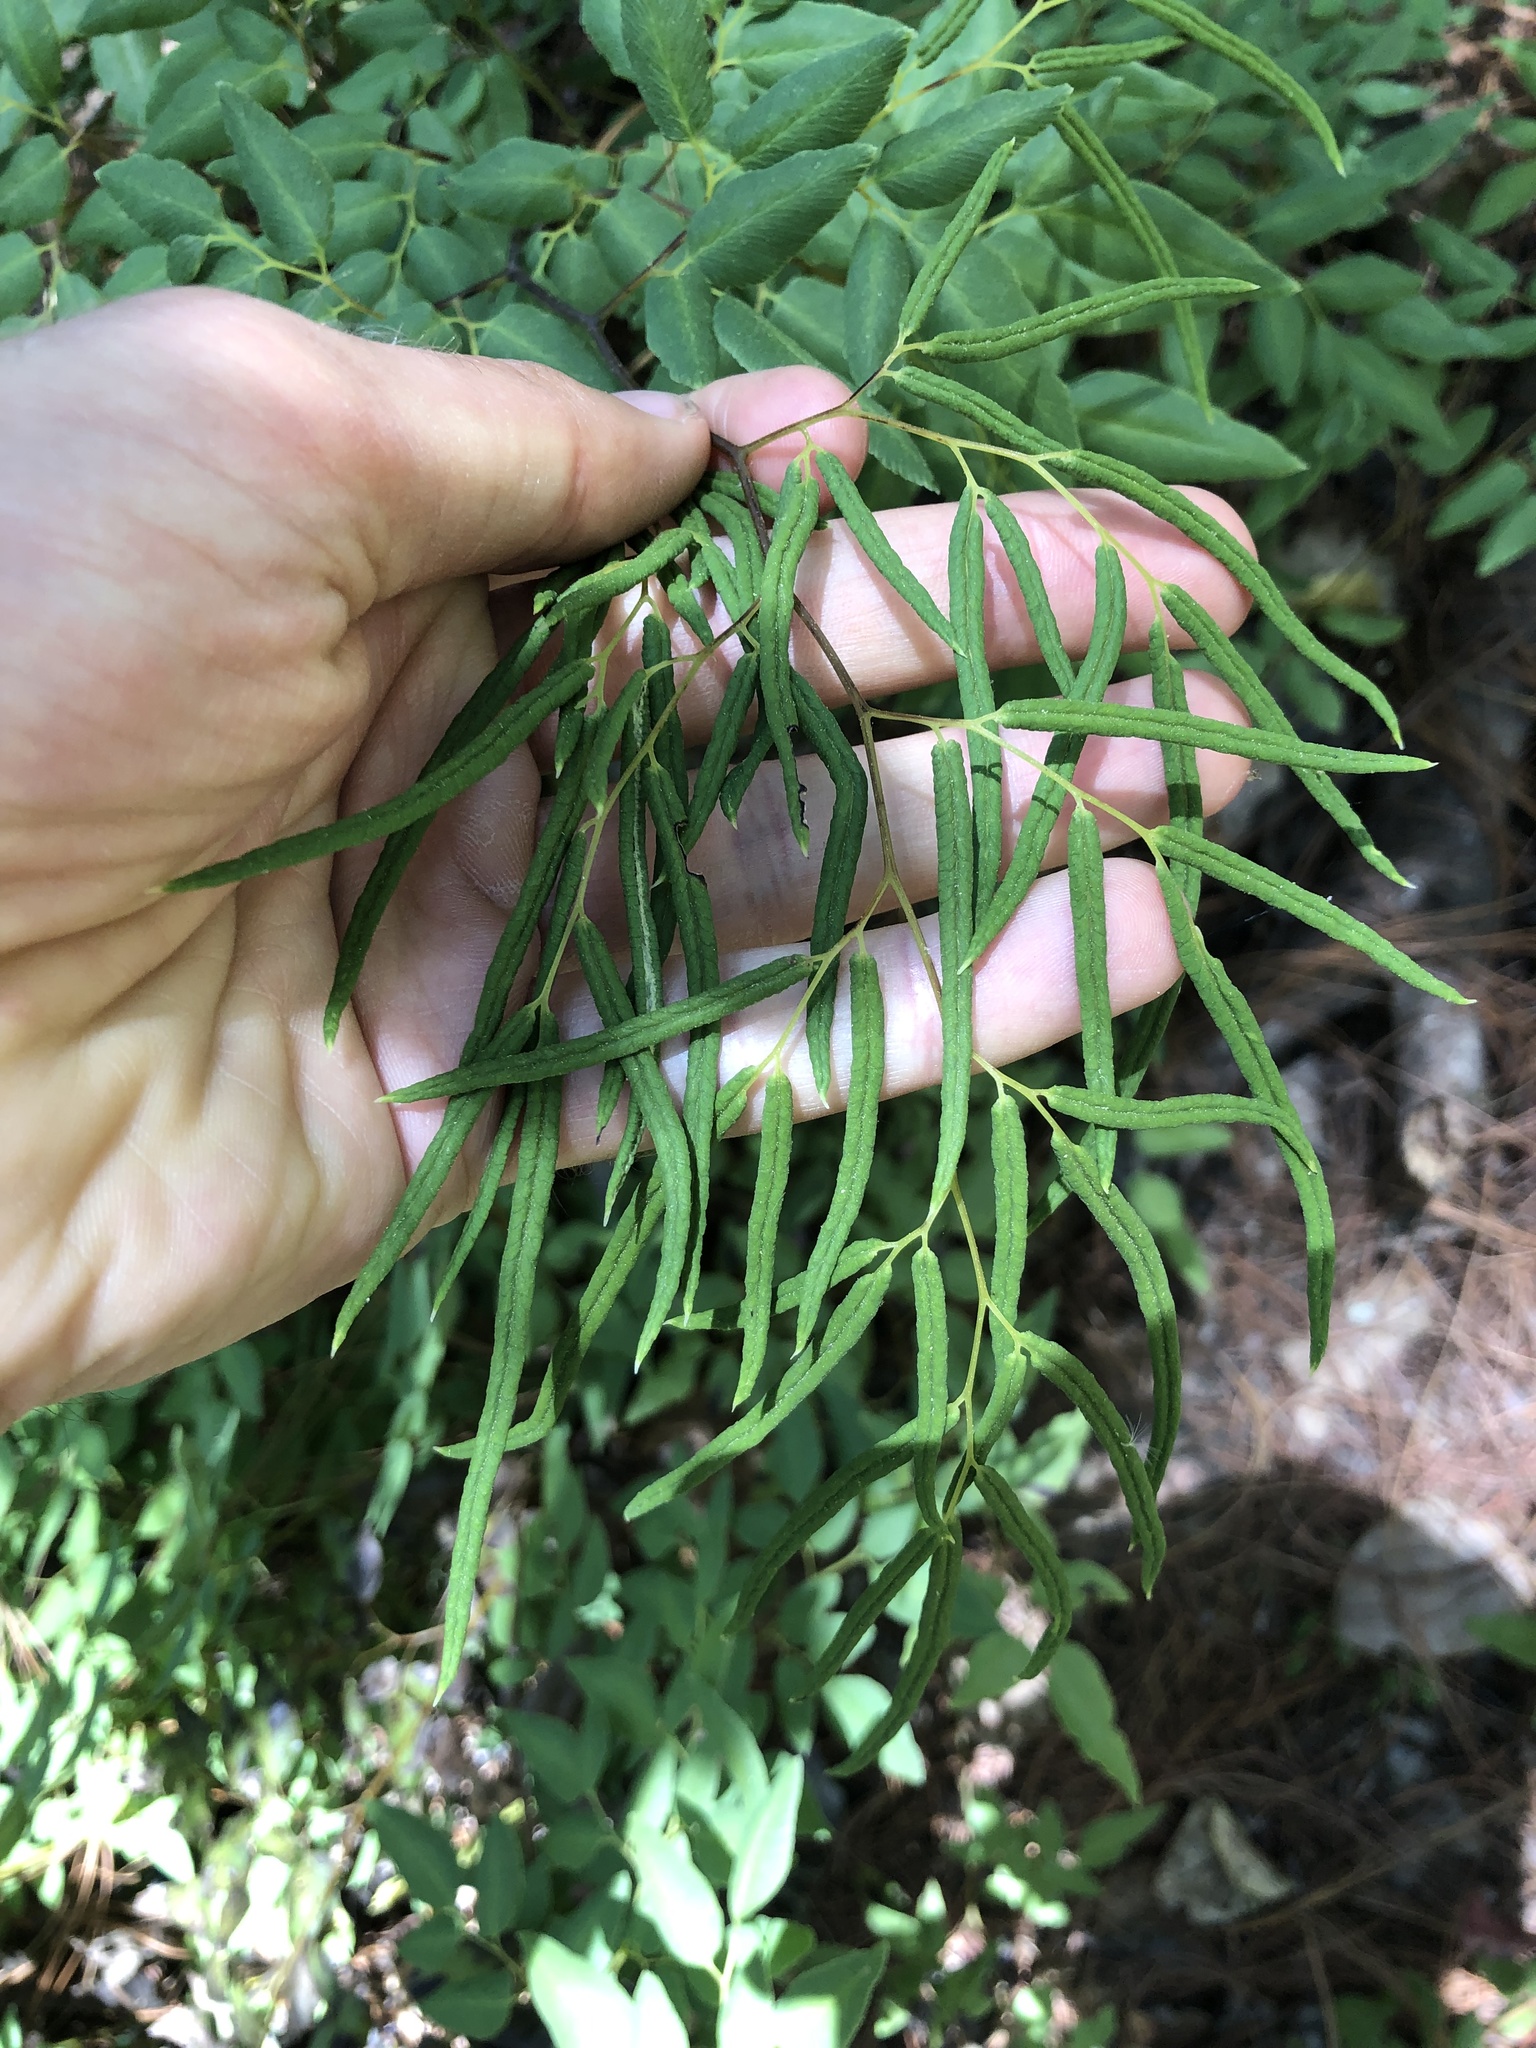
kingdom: Plantae
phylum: Tracheophyta
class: Polypodiopsida
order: Polypodiales
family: Pteridaceae
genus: Llavea
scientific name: Llavea cordifolia
